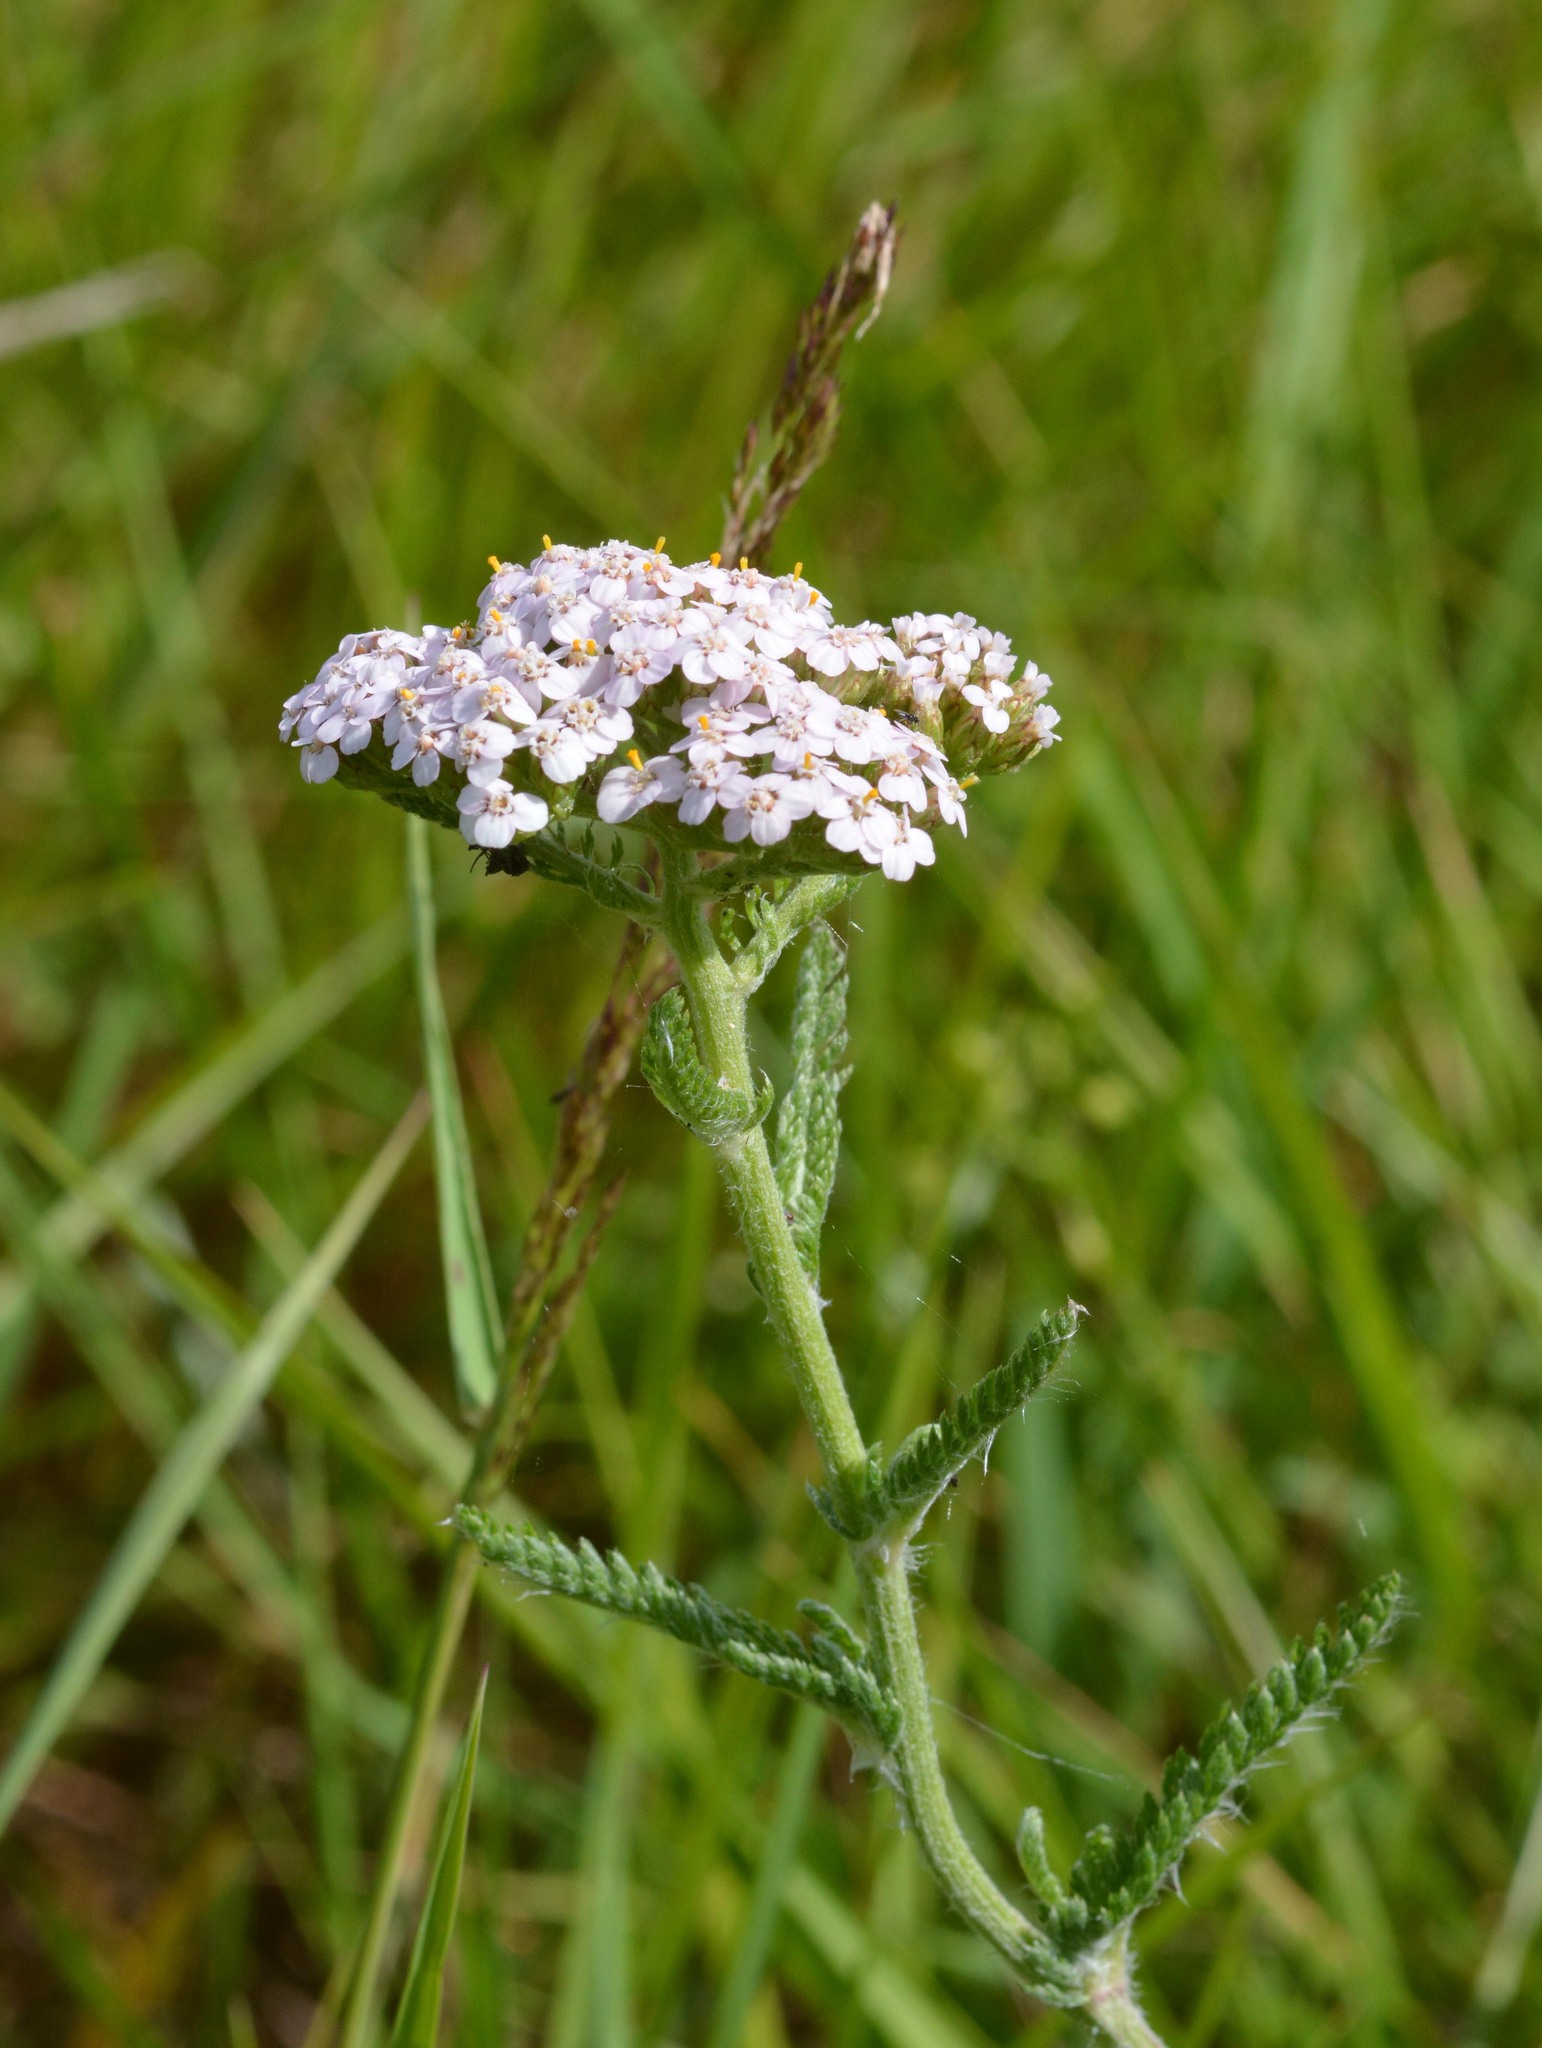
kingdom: Plantae
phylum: Tracheophyta
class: Magnoliopsida
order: Asterales
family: Asteraceae
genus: Achillea
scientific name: Achillea millefolium
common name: Yarrow
